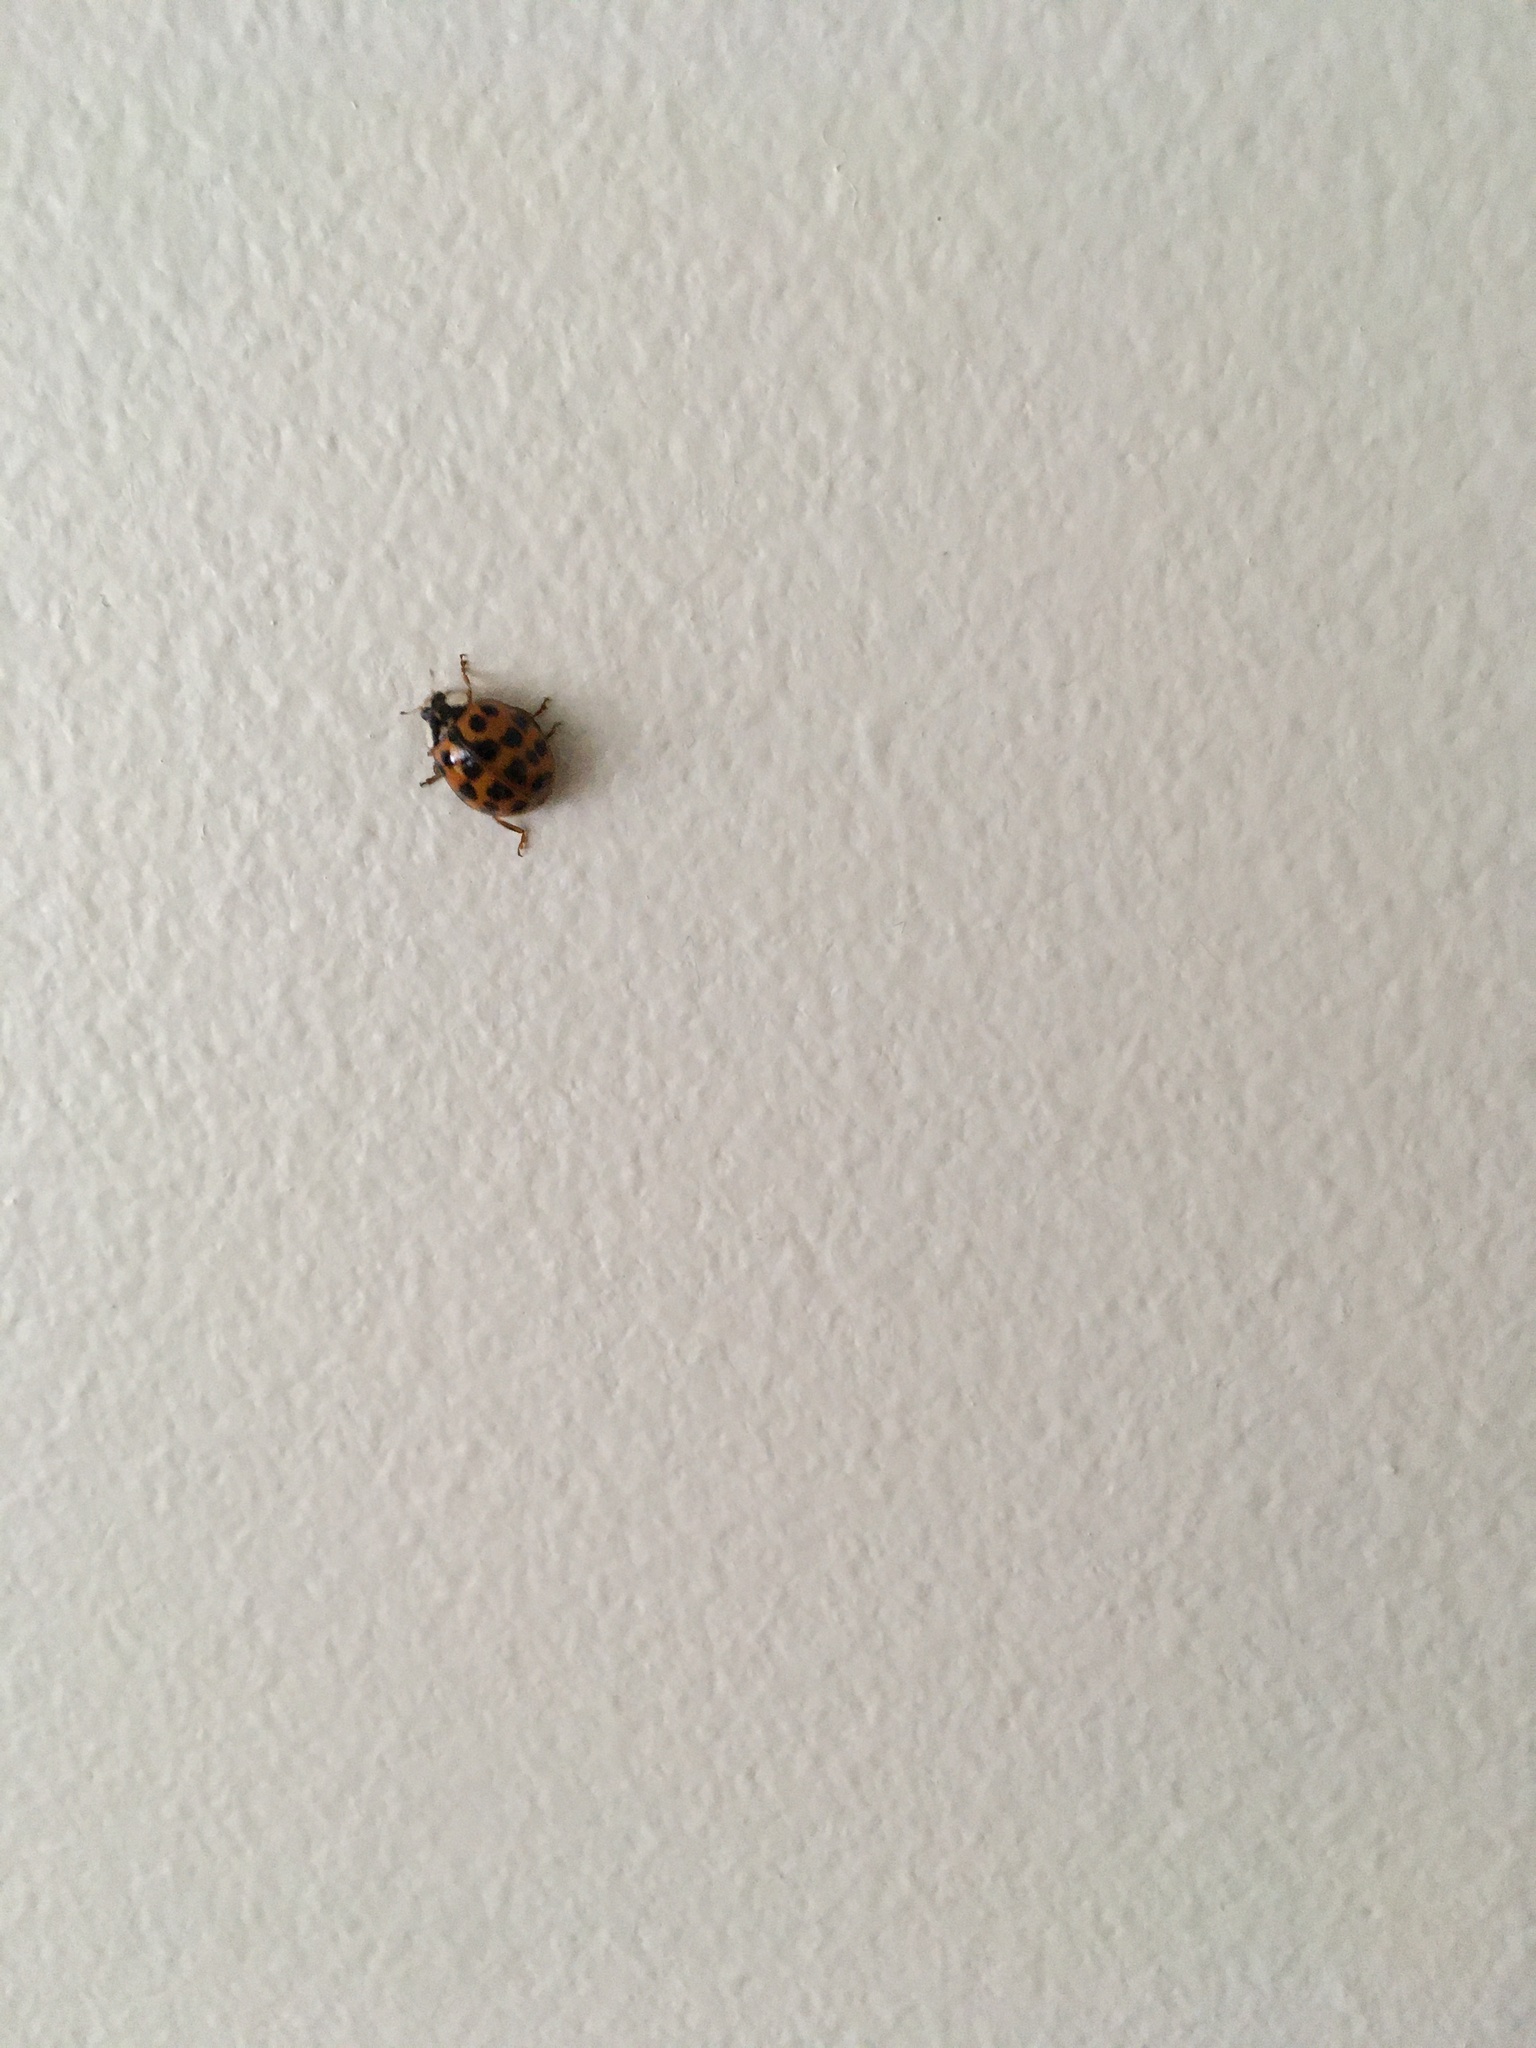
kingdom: Animalia
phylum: Arthropoda
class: Insecta
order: Coleoptera
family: Coccinellidae
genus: Harmonia
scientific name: Harmonia axyridis
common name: Harlequin ladybird
